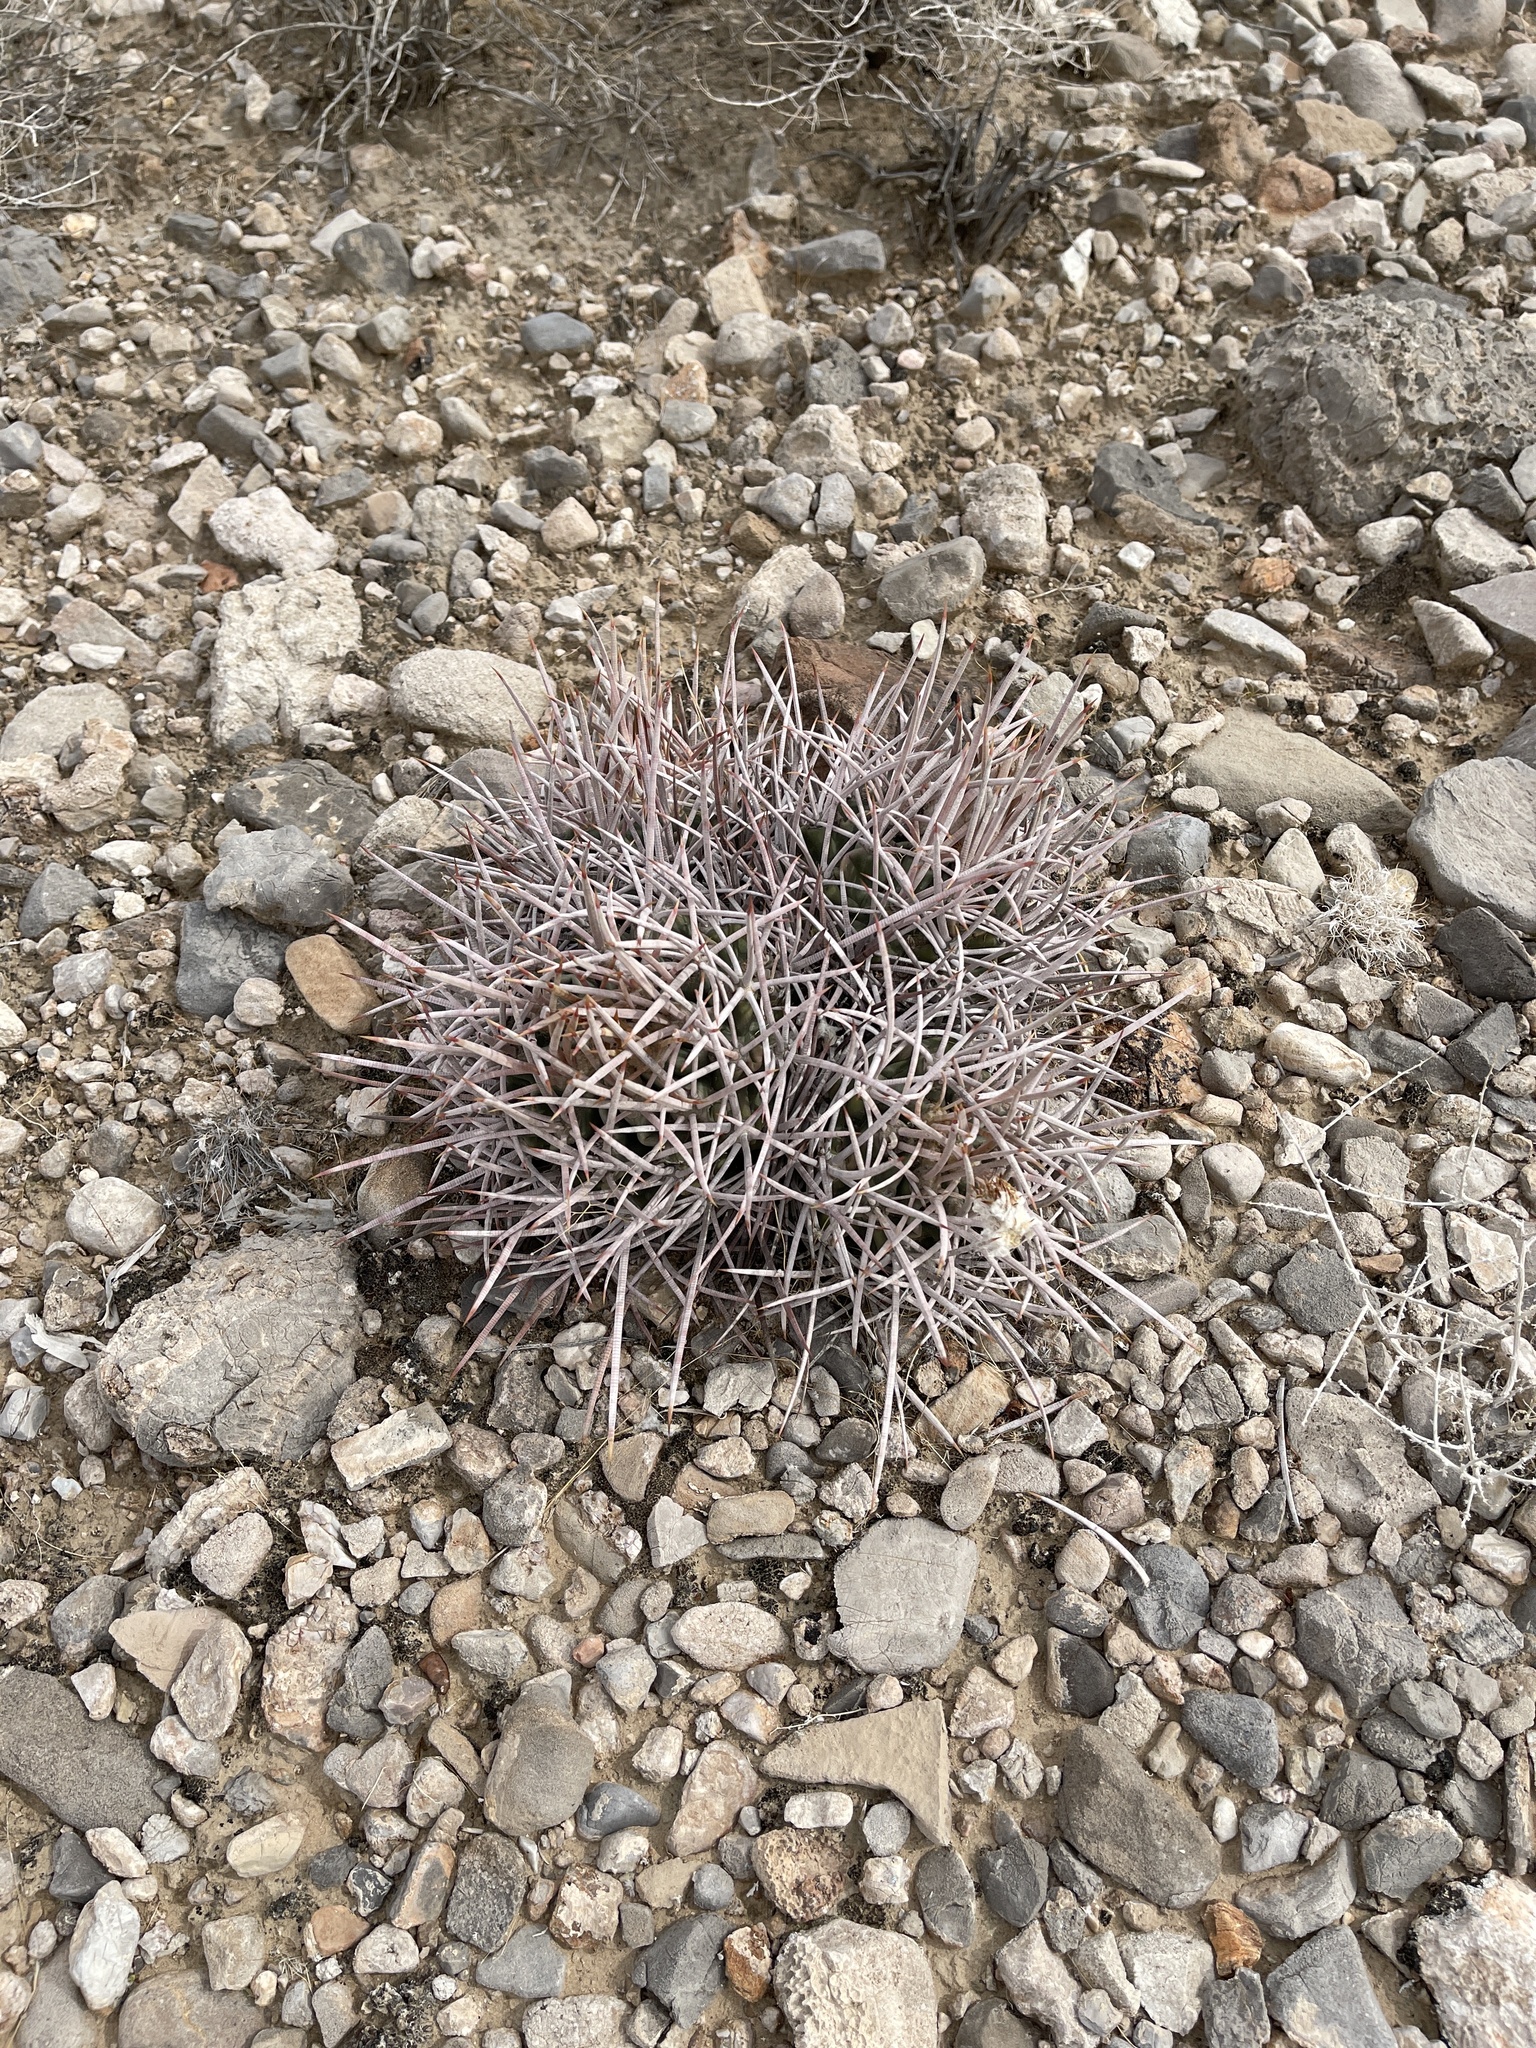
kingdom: Plantae
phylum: Tracheophyta
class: Magnoliopsida
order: Caryophyllales
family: Cactaceae
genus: Echinocactus
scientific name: Echinocactus polycephalus
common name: Cottontop cactus
